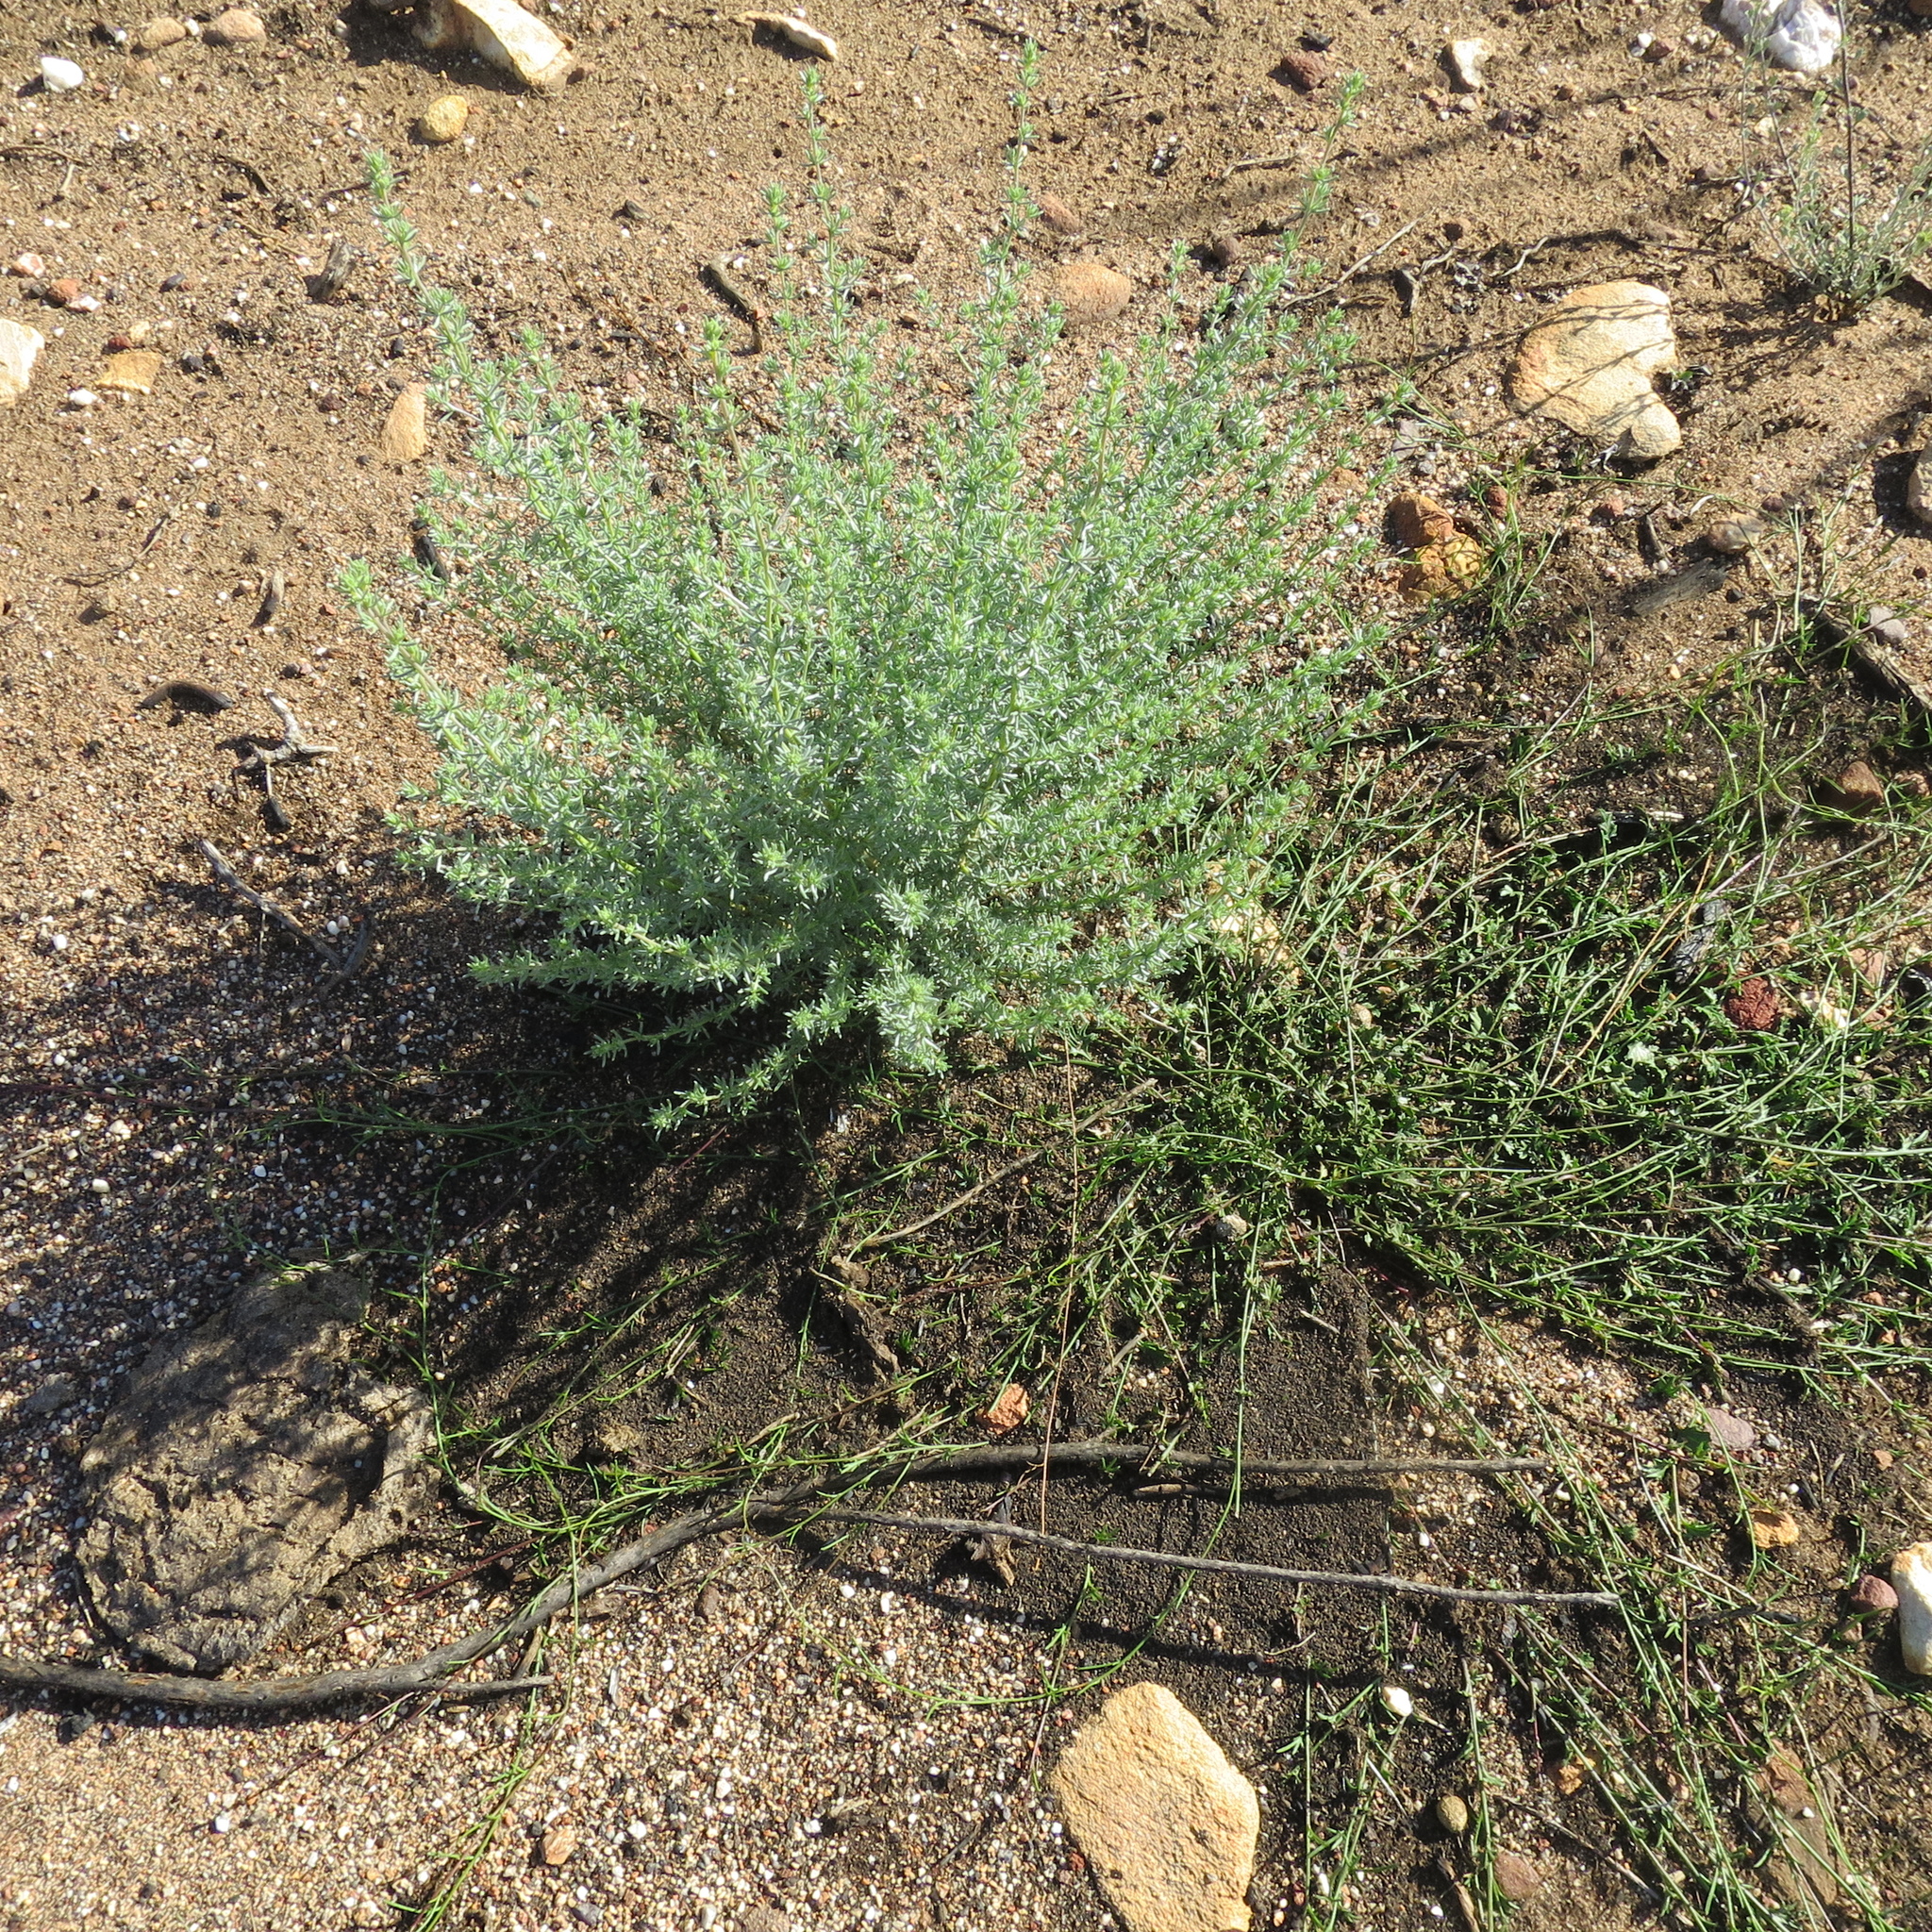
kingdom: Plantae
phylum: Tracheophyta
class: Magnoliopsida
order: Fabales
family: Fabaceae
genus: Aspalathus
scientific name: Aspalathus pedunculata
